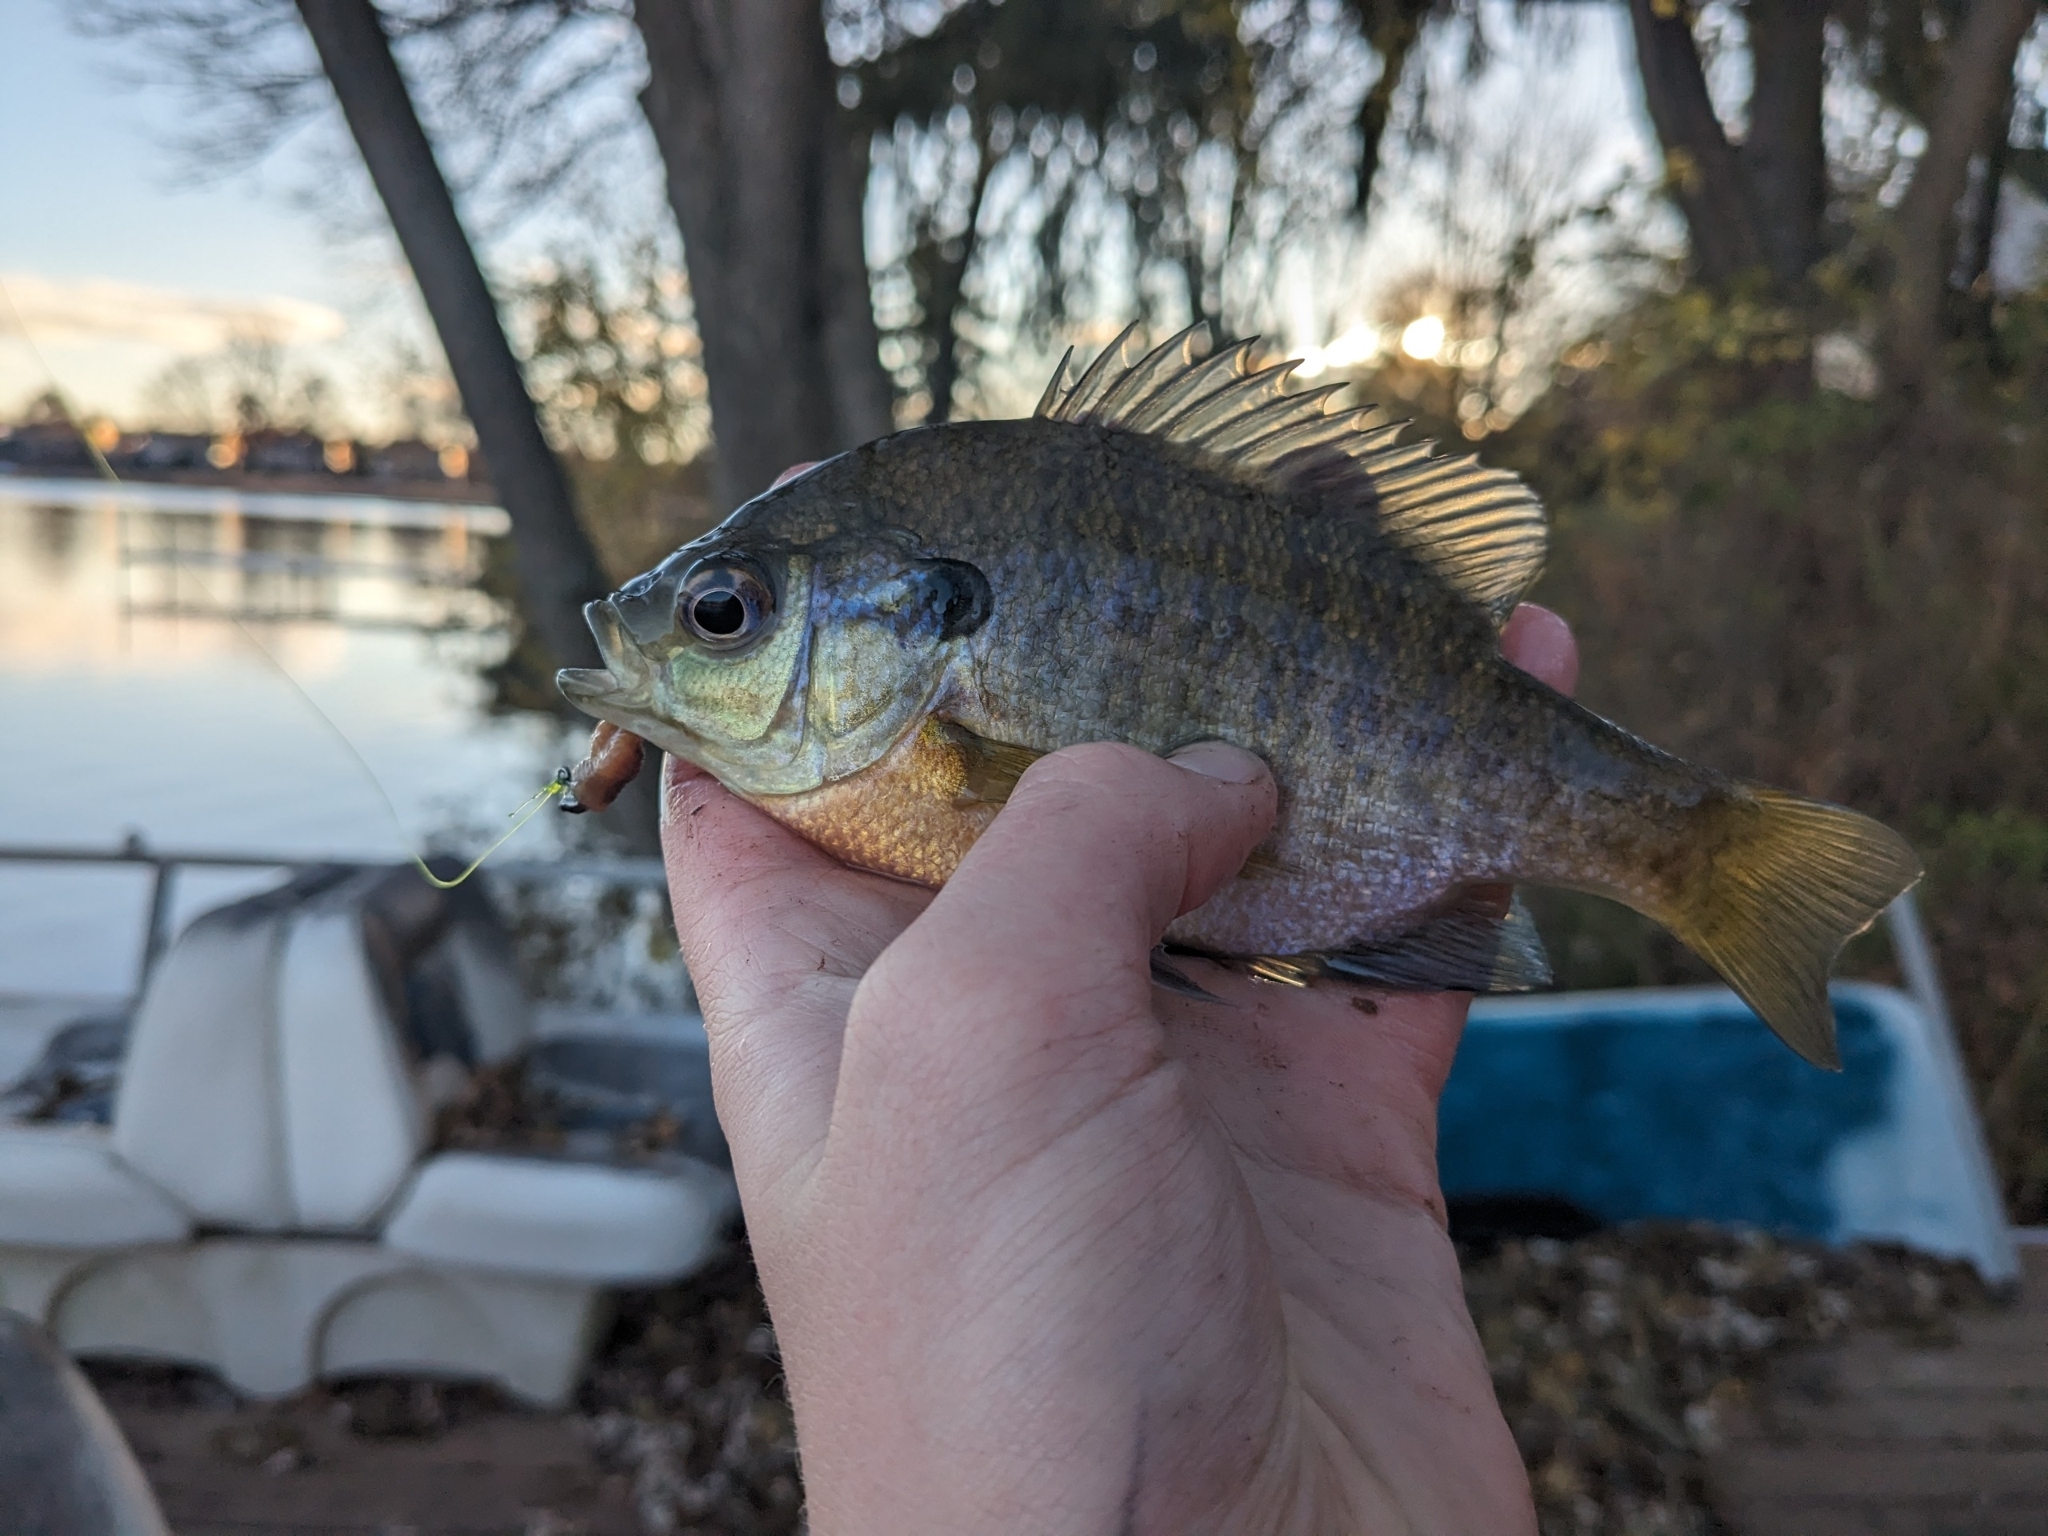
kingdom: Animalia
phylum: Chordata
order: Perciformes
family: Centrarchidae
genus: Lepomis
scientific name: Lepomis macrochirus
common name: Bluegill
